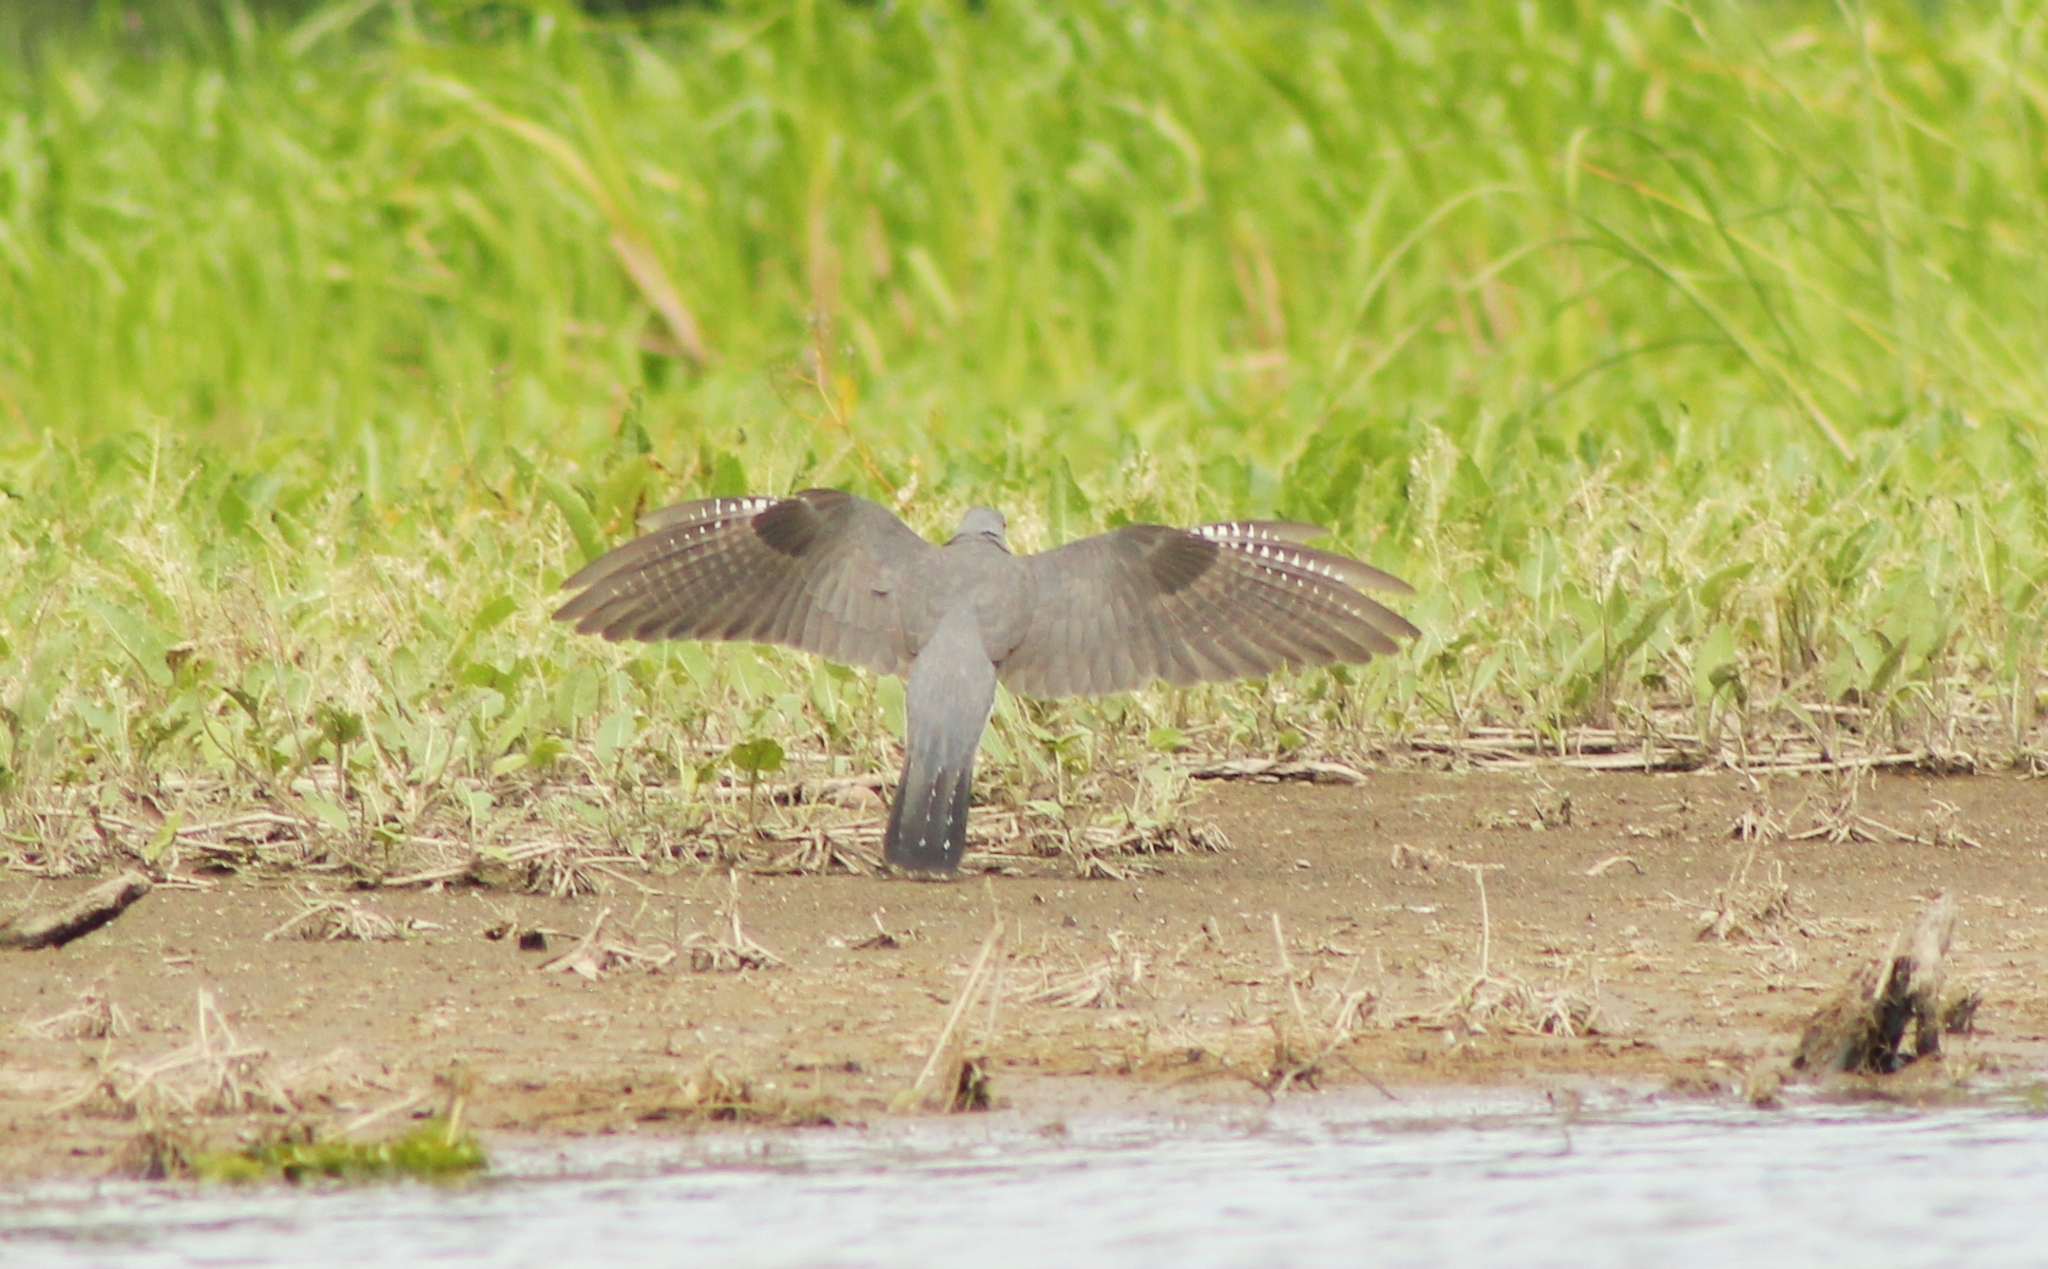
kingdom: Animalia
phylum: Chordata
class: Aves
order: Cuculiformes
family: Cuculidae
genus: Cuculus
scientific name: Cuculus canorus
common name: Common cuckoo
